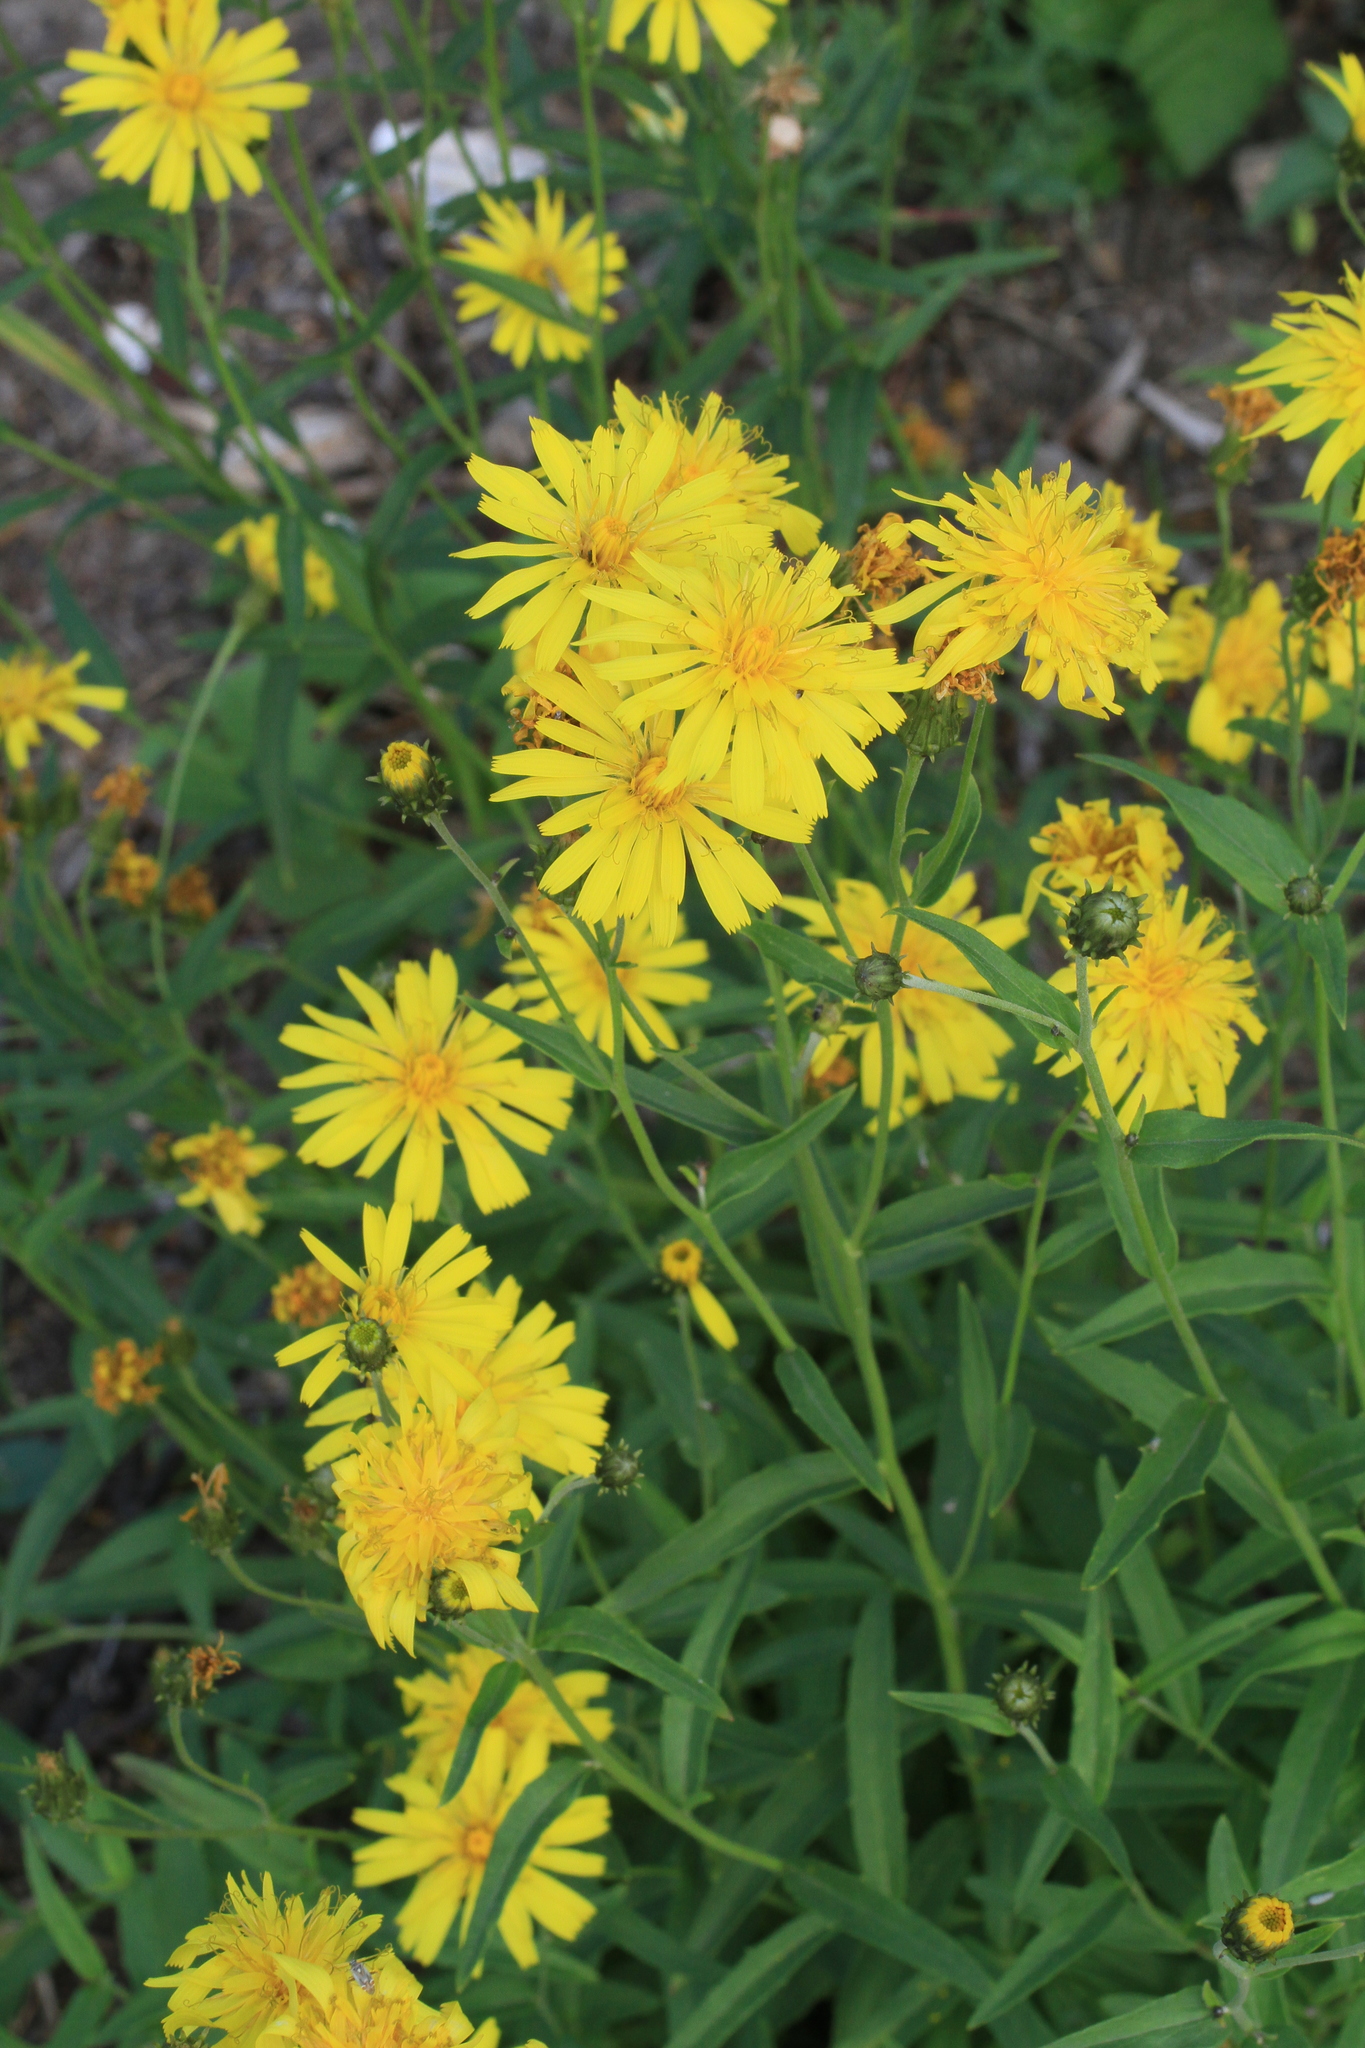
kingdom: Plantae
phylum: Tracheophyta
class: Magnoliopsida
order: Asterales
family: Asteraceae
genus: Hieracium
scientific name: Hieracium umbellatum
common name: Northern hawkweed
